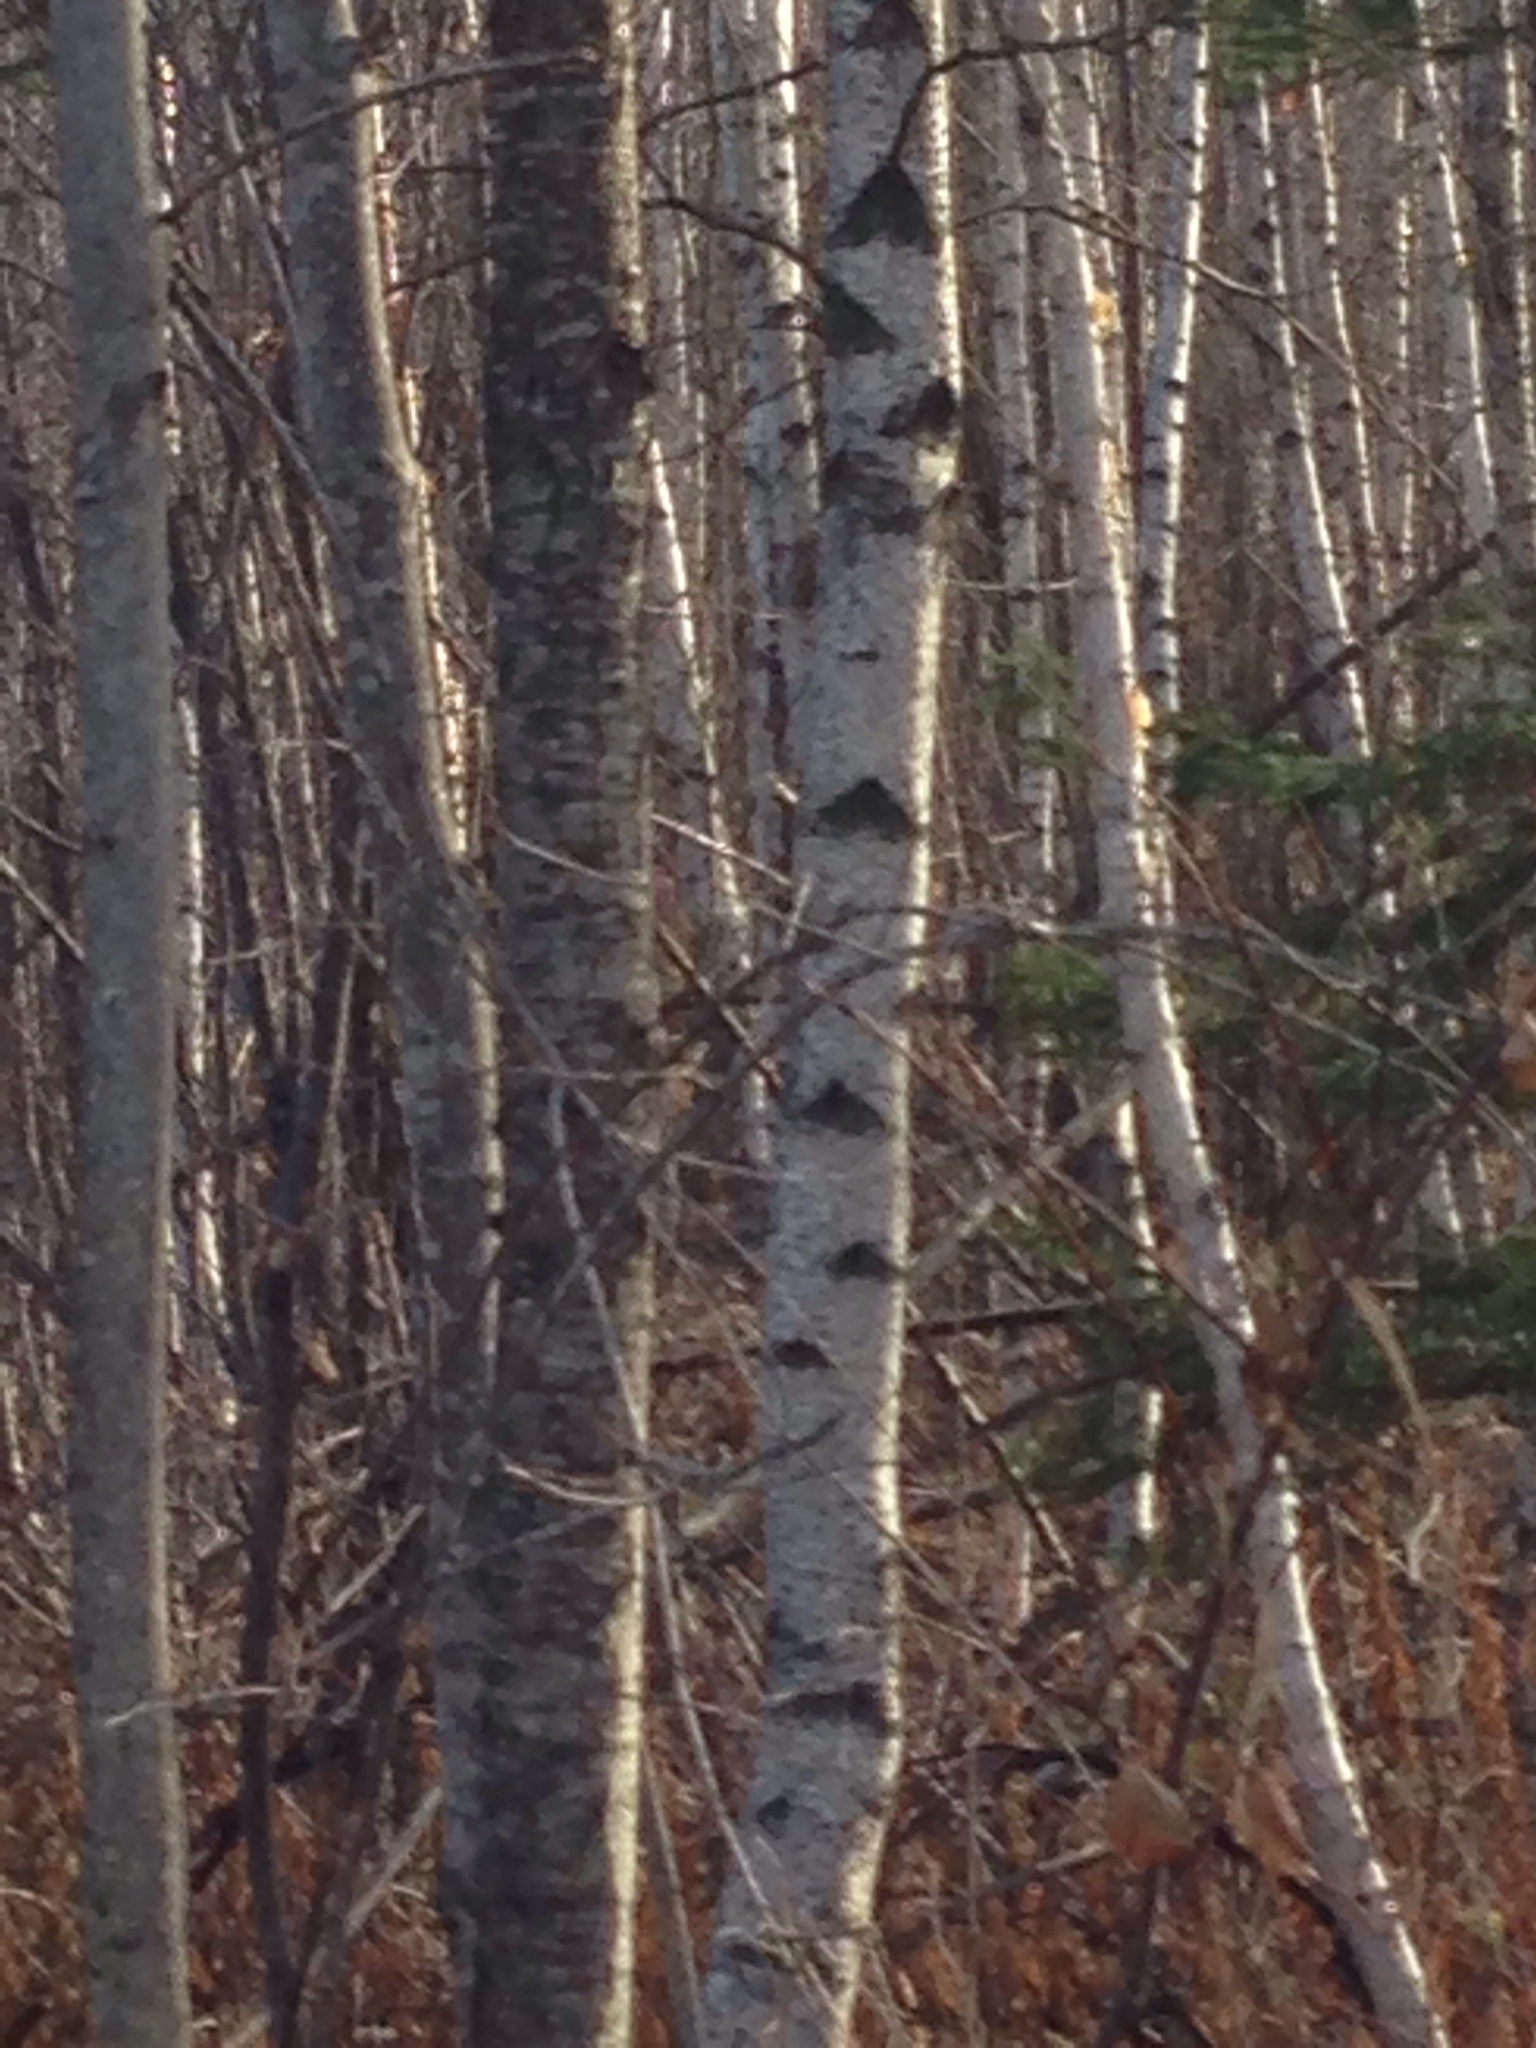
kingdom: Plantae
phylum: Tracheophyta
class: Magnoliopsida
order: Fagales
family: Betulaceae
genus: Betula
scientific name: Betula populifolia
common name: Fire birch
